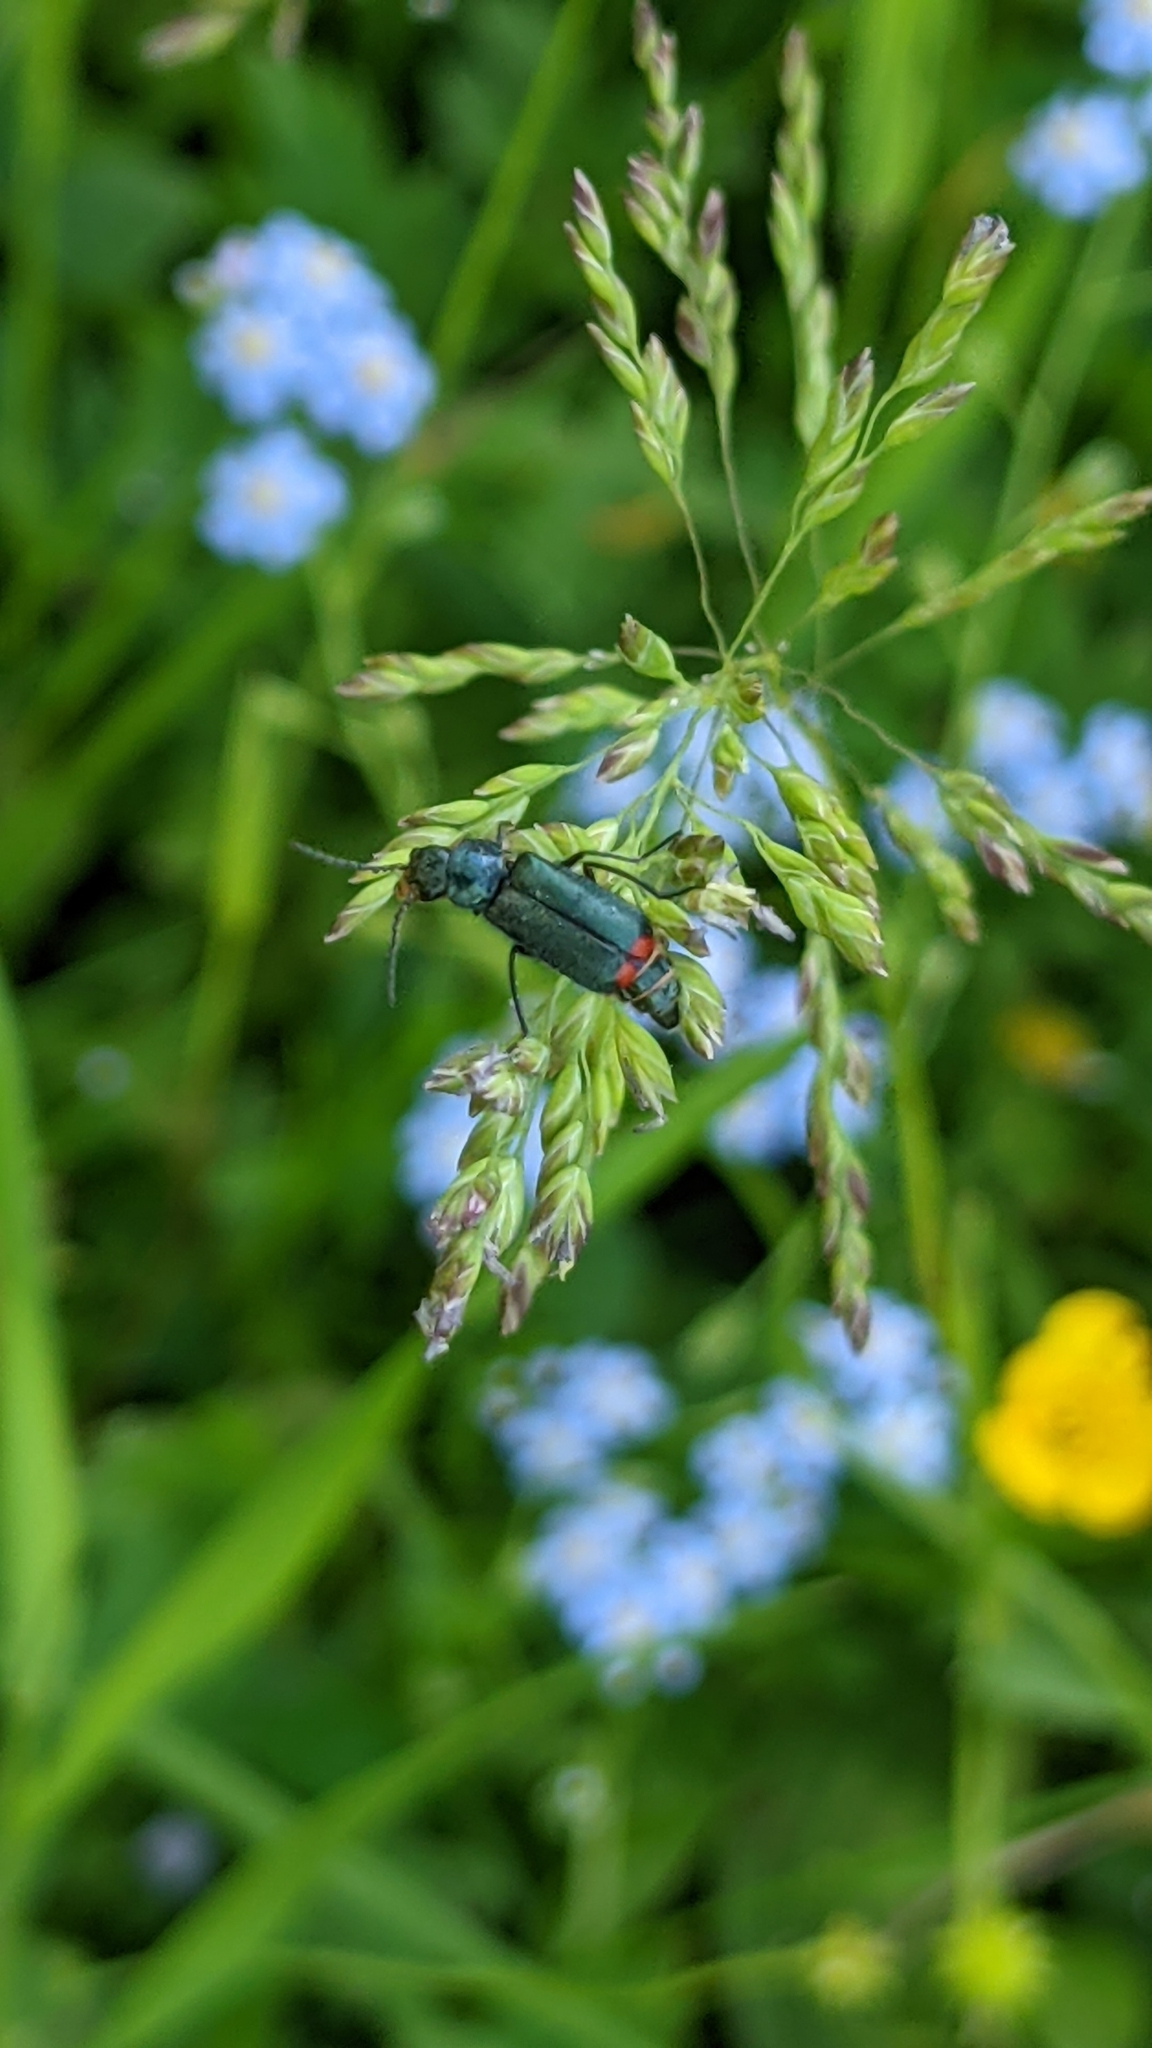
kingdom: Animalia
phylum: Arthropoda
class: Insecta
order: Coleoptera
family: Melyridae
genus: Malachius
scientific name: Malachius bipustulatus
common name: Malachite beetle
